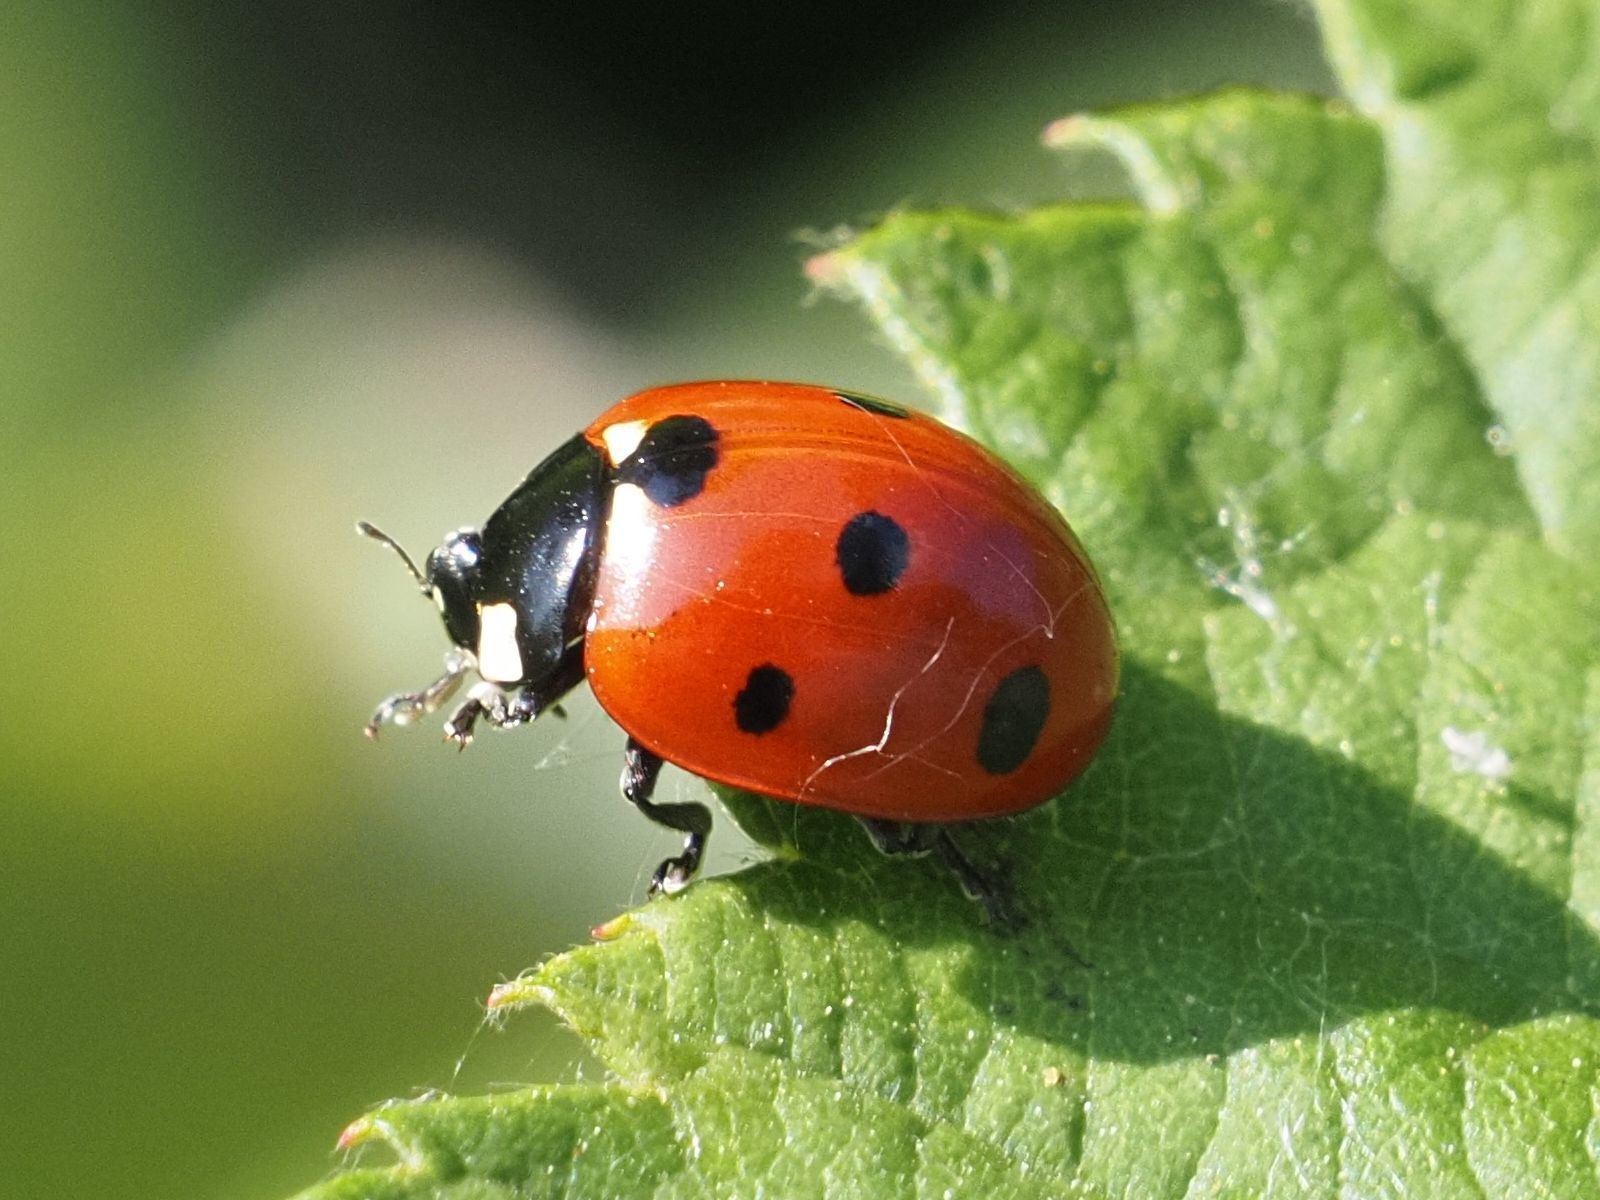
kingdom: Animalia
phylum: Arthropoda
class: Insecta
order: Coleoptera
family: Coccinellidae
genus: Coccinella
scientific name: Coccinella septempunctata
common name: Sevenspotted lady beetle
